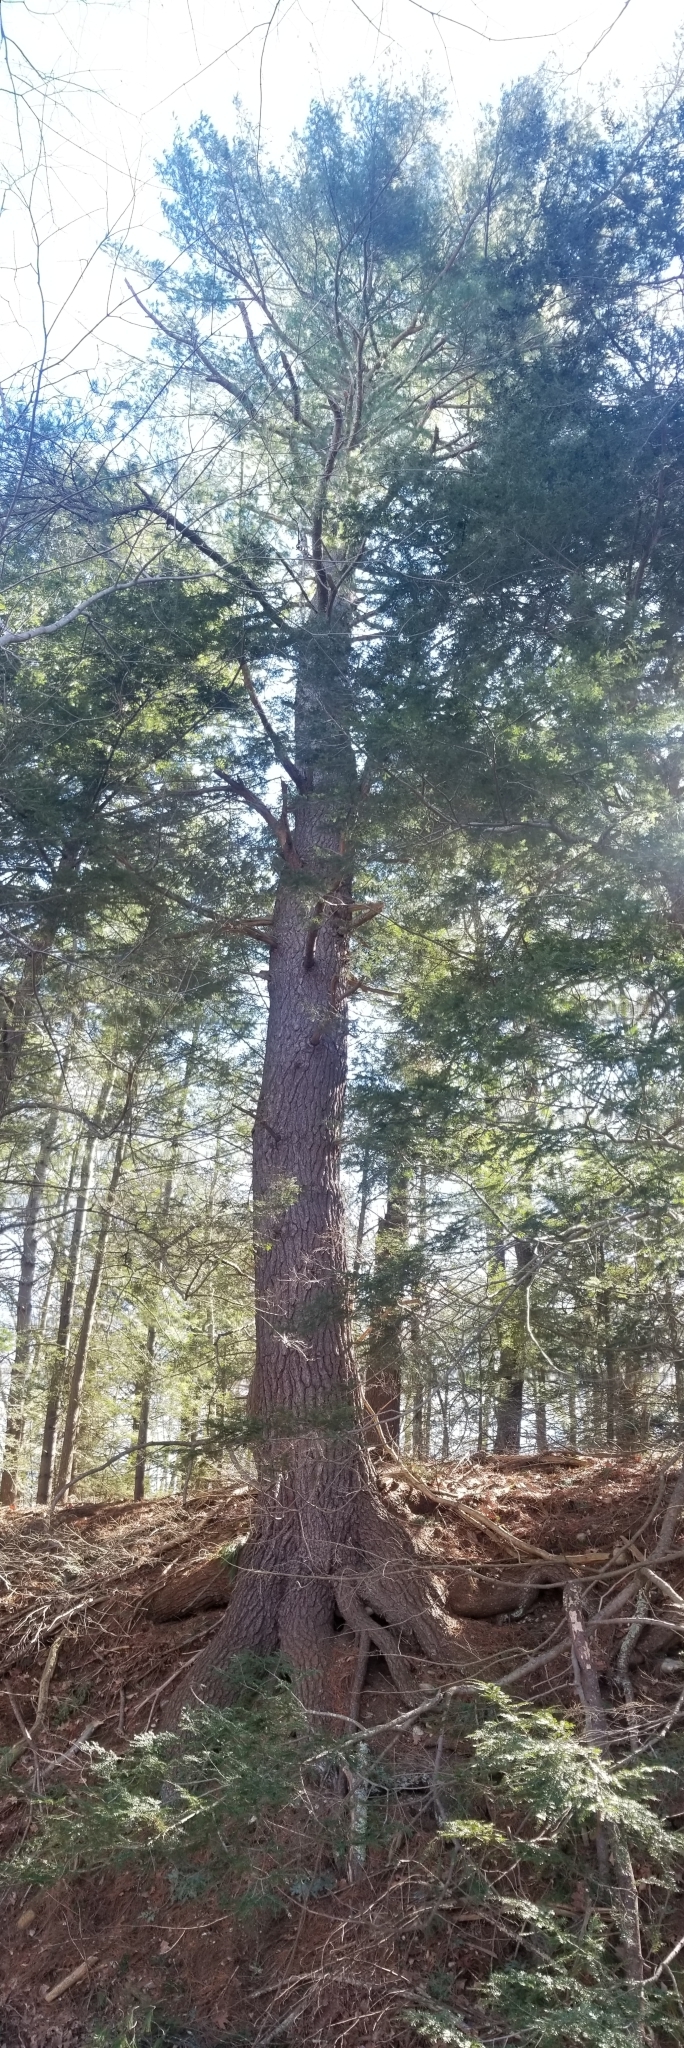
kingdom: Plantae
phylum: Tracheophyta
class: Pinopsida
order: Pinales
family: Pinaceae
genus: Pinus
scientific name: Pinus strobus
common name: Weymouth pine
